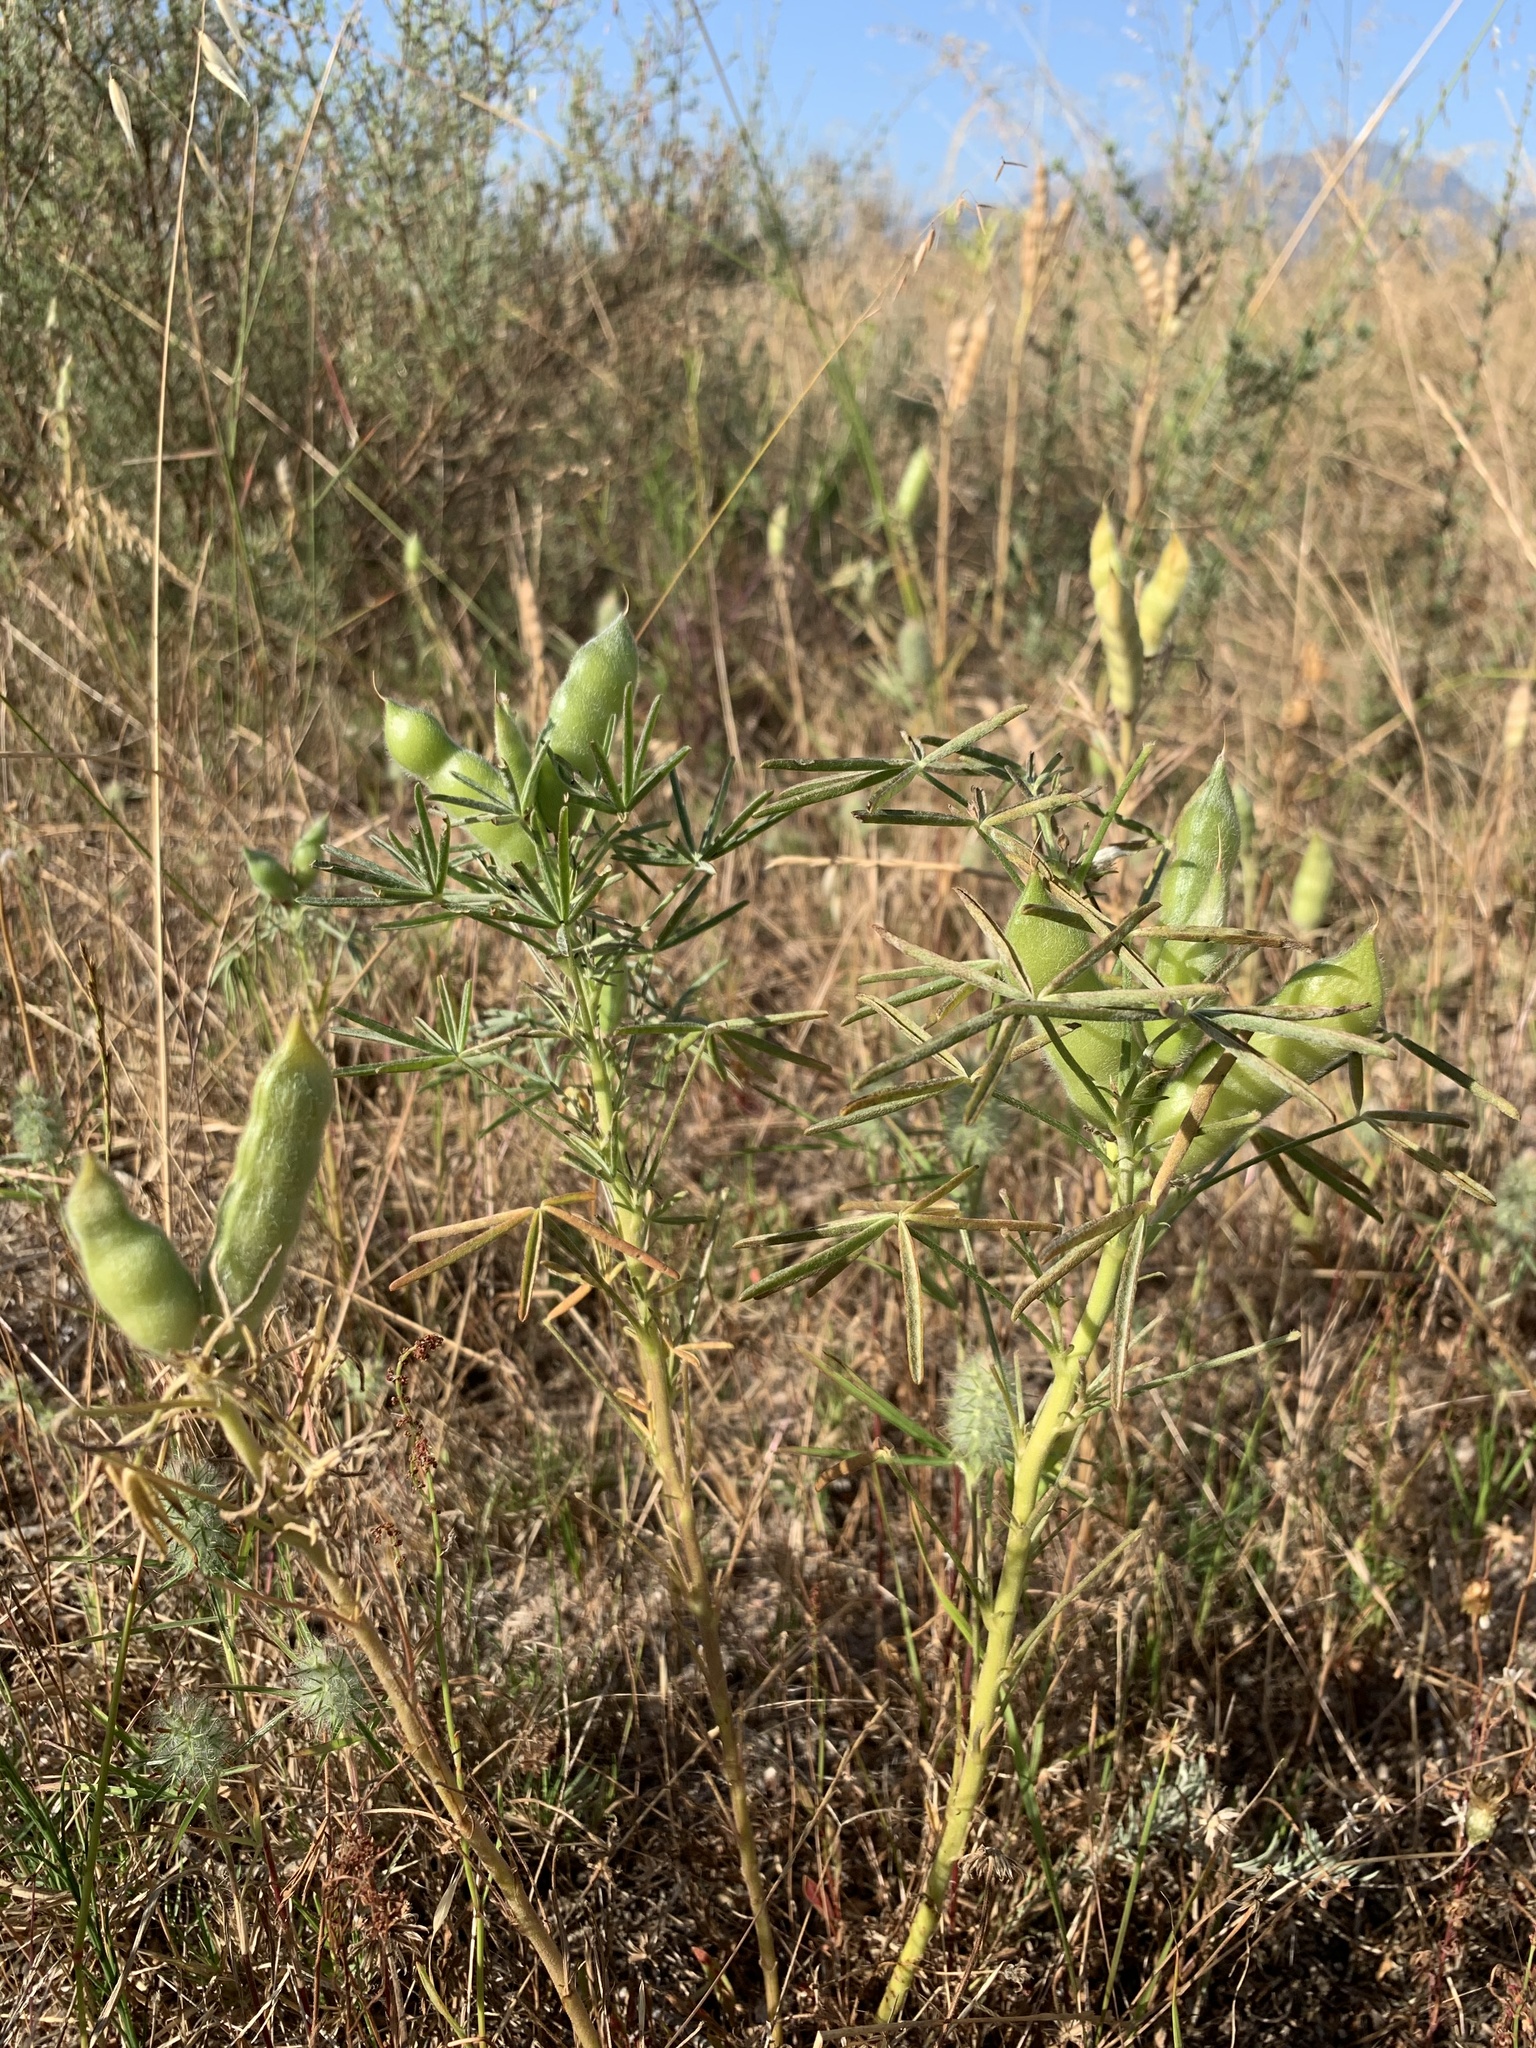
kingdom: Plantae
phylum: Tracheophyta
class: Magnoliopsida
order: Fabales
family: Fabaceae
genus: Lupinus
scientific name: Lupinus angustifolius
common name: Narrow-leaved lupin
